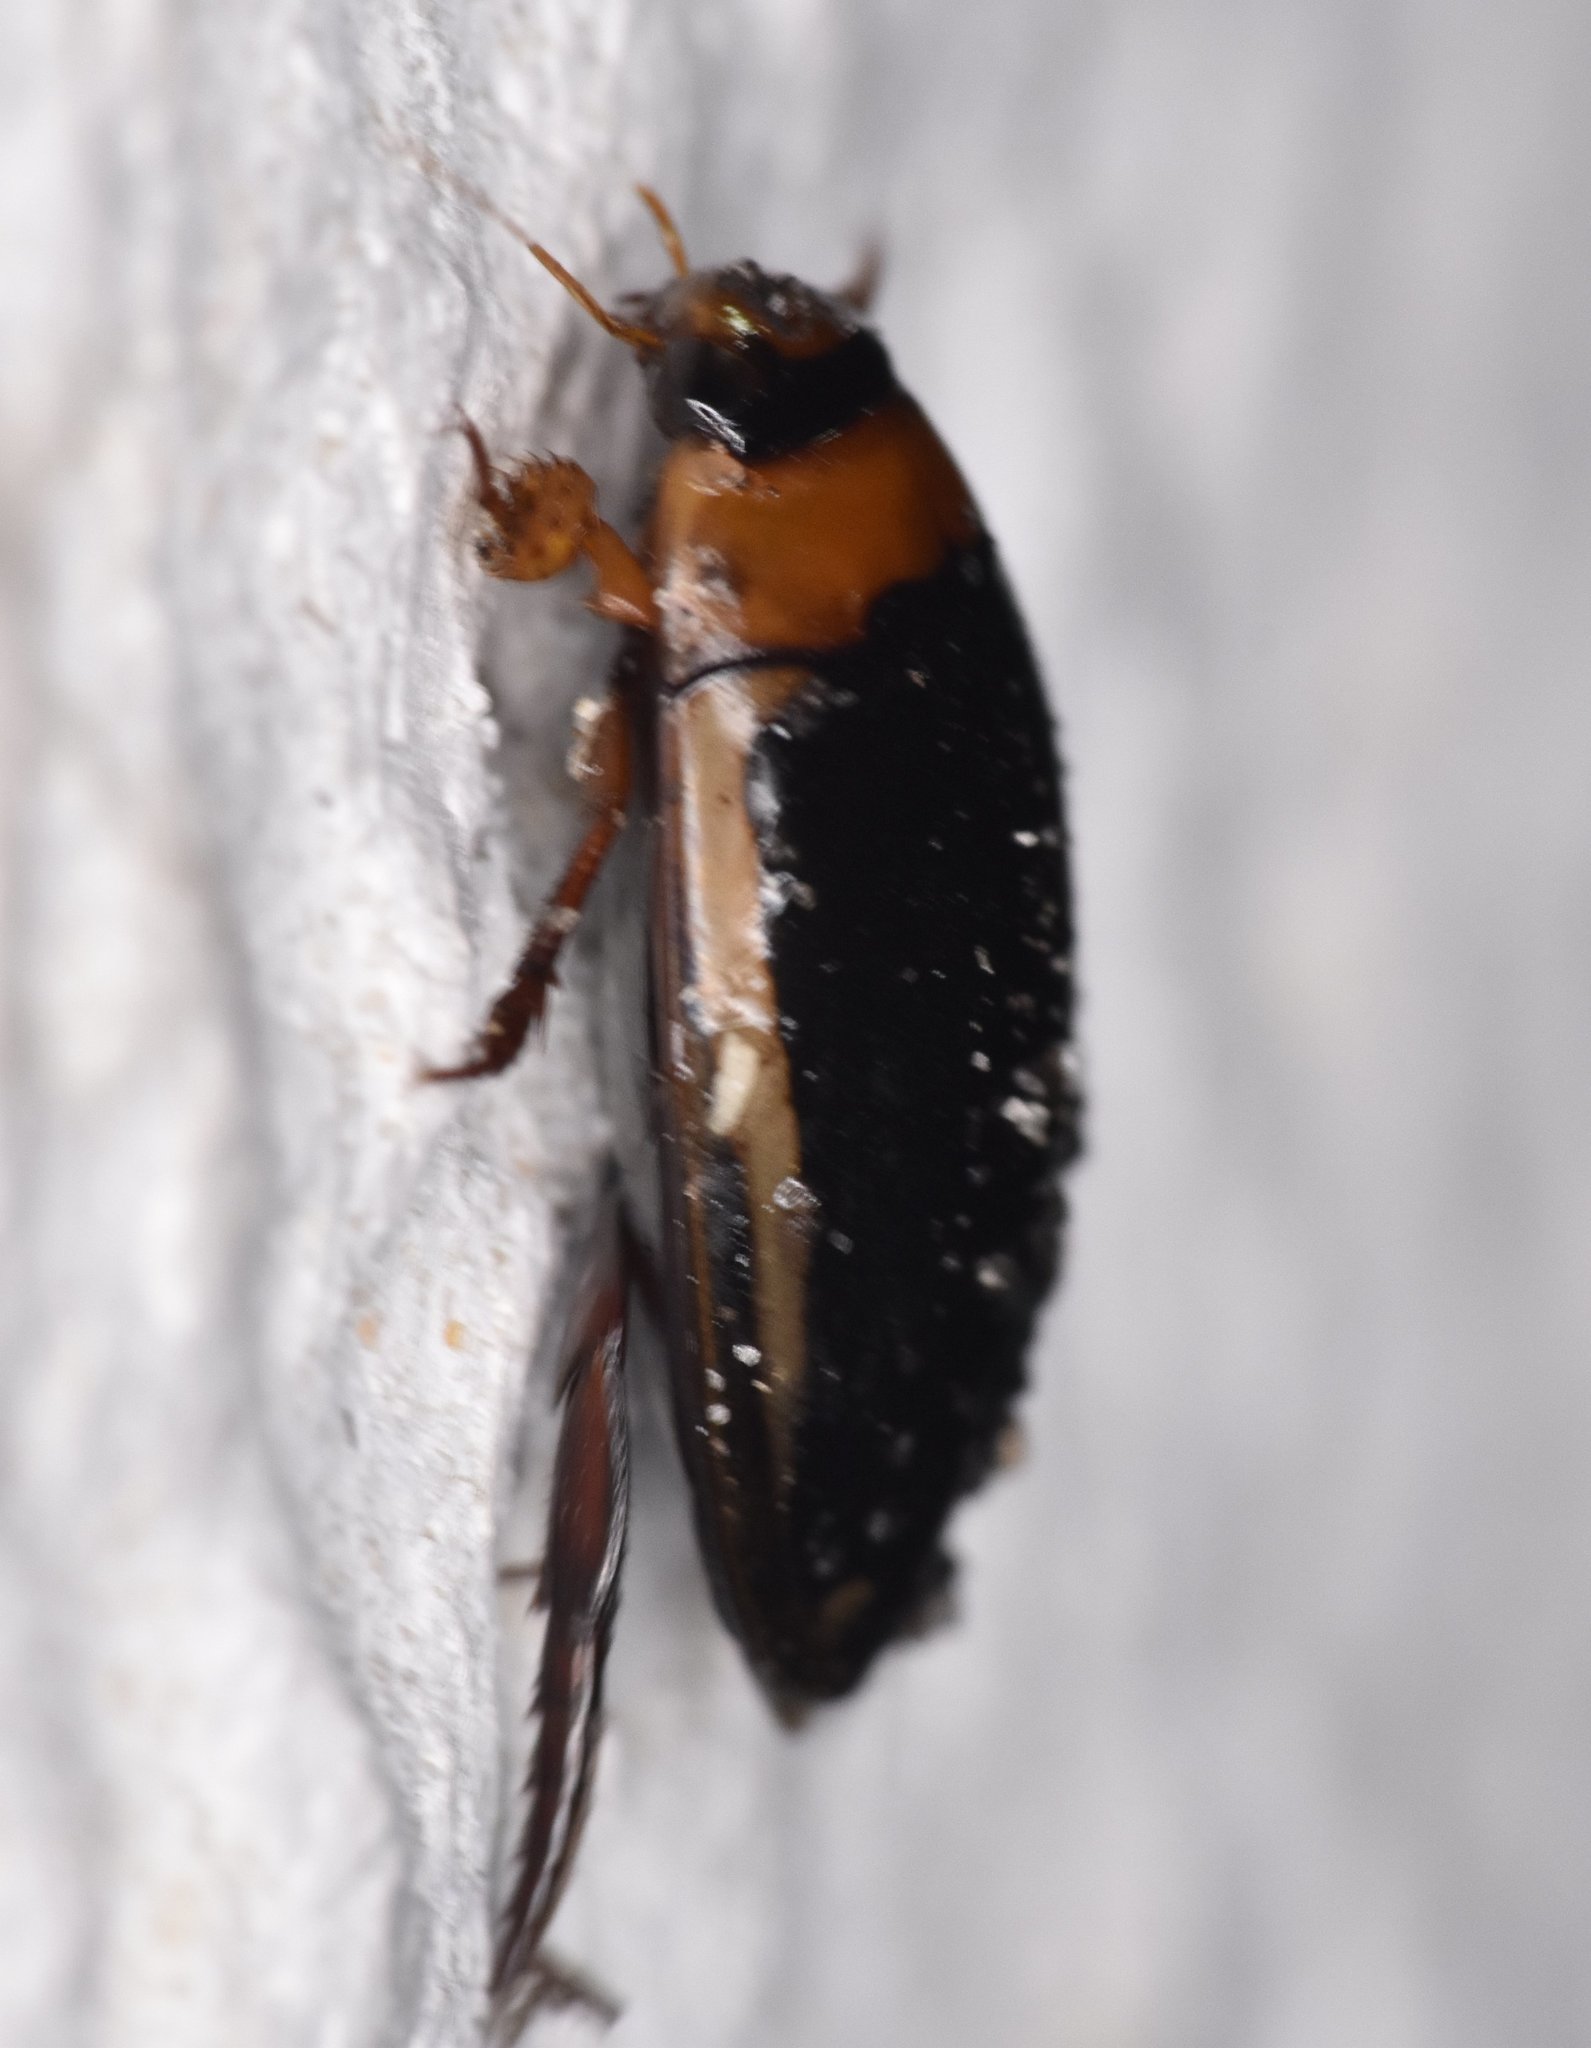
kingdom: Animalia
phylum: Arthropoda
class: Insecta
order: Coleoptera
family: Dytiscidae
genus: Hydaticus
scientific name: Hydaticus bimarginatus
